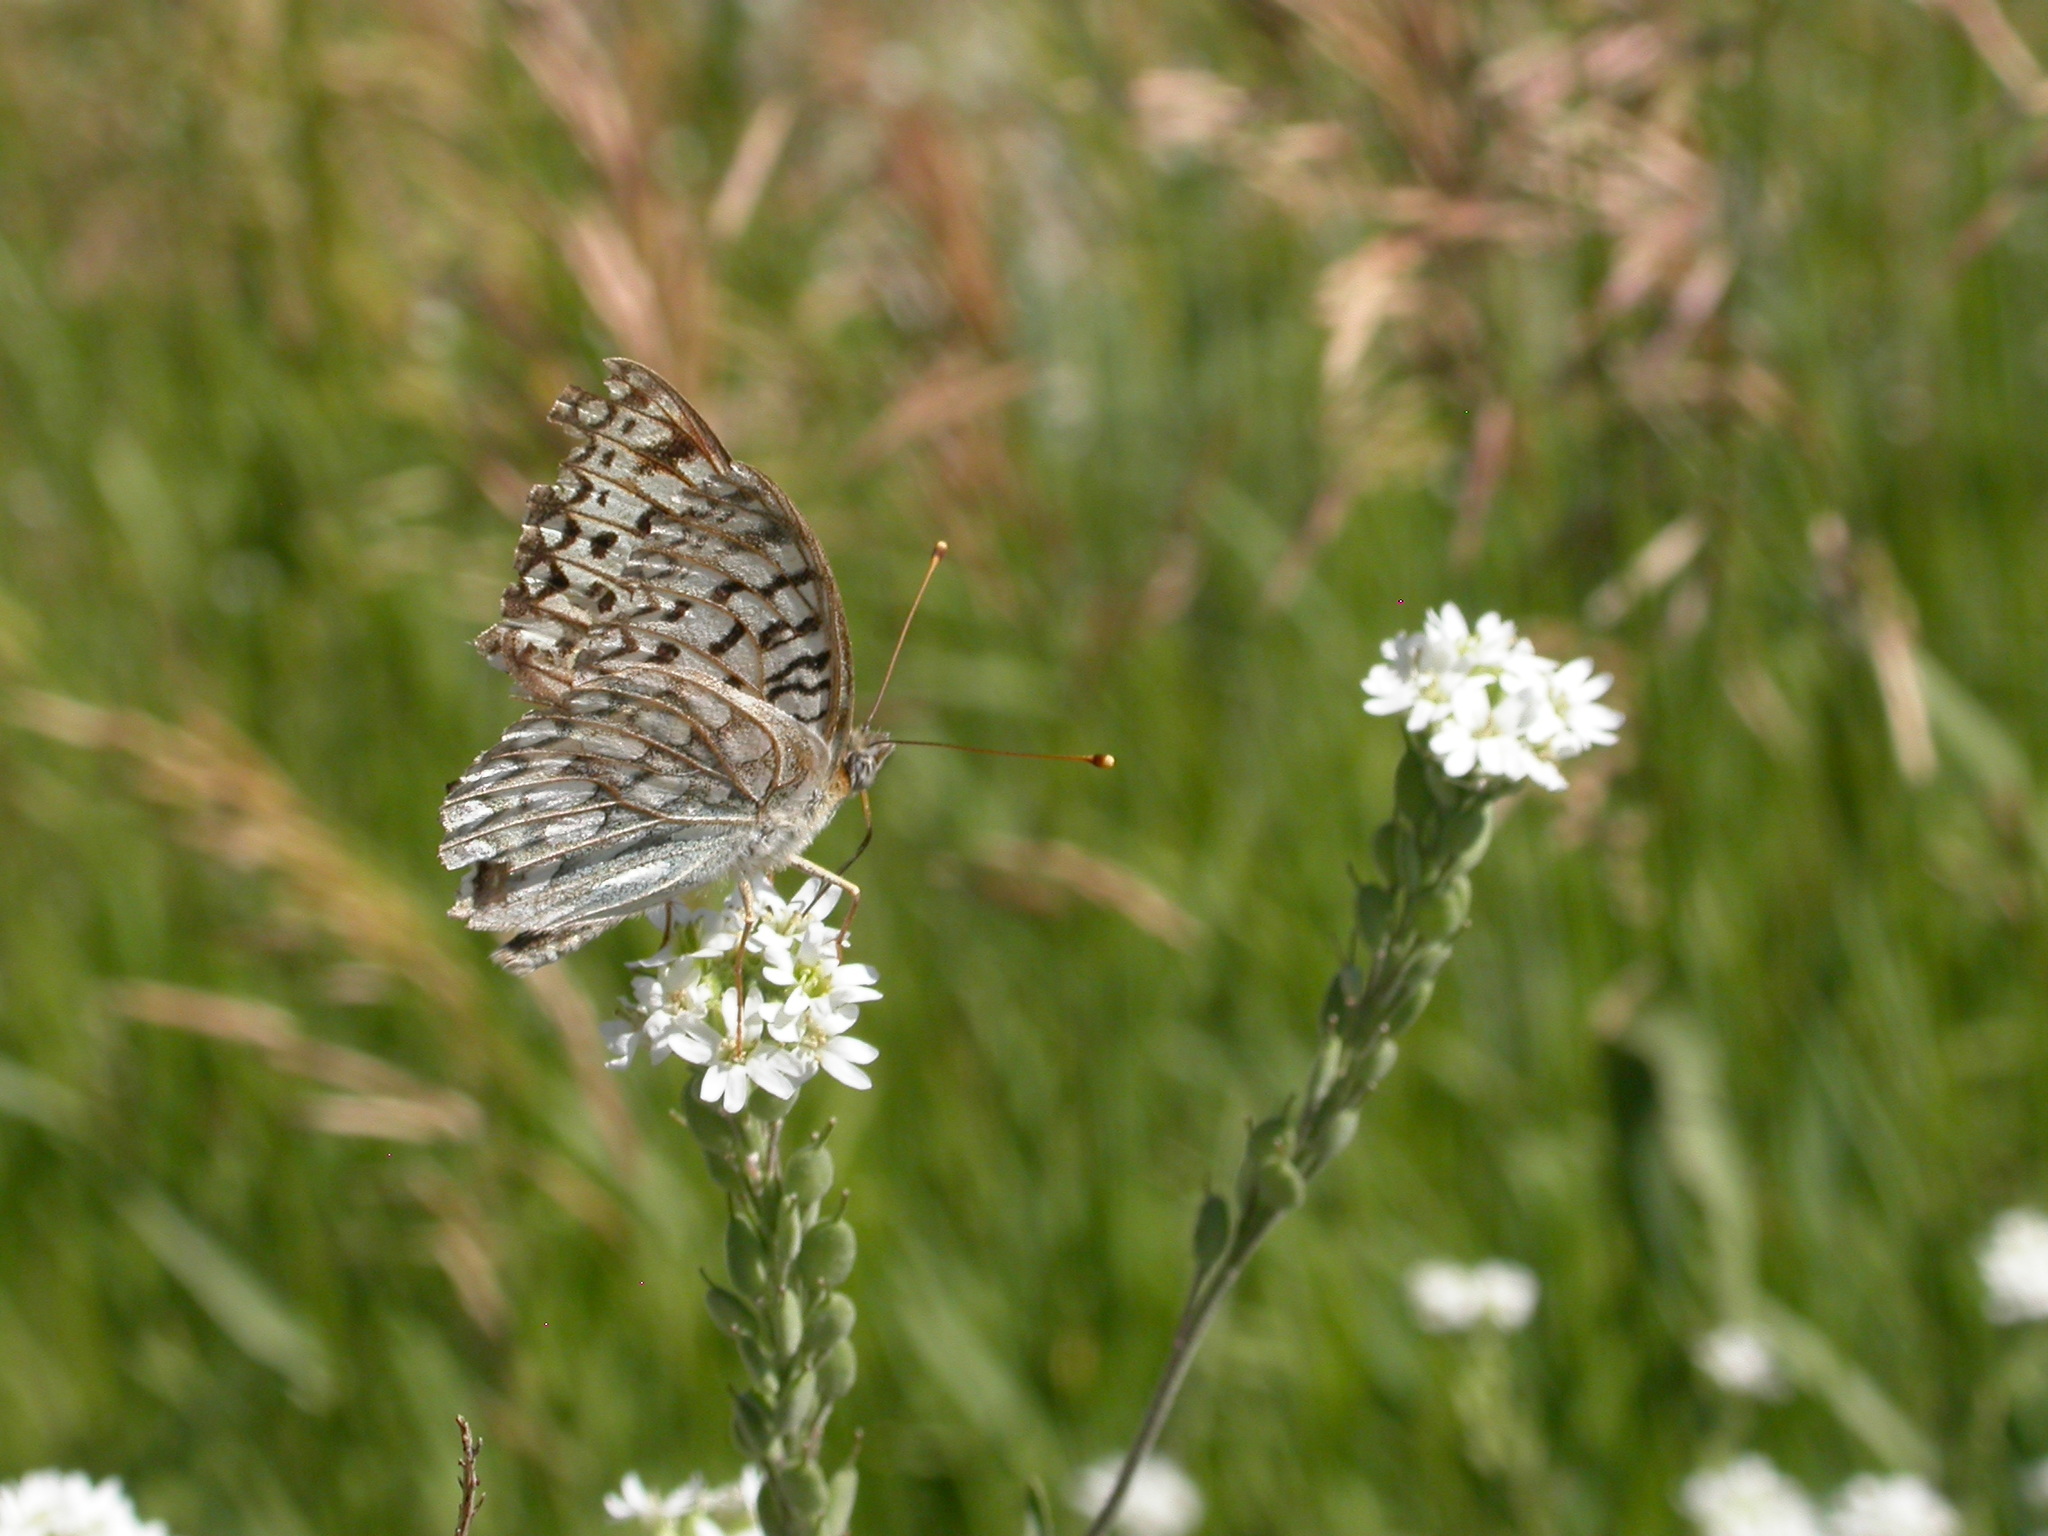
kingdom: Animalia
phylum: Arthropoda
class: Insecta
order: Lepidoptera
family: Nymphalidae
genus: Speyeria
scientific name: Speyeria callippe
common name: Callippe fritillary
